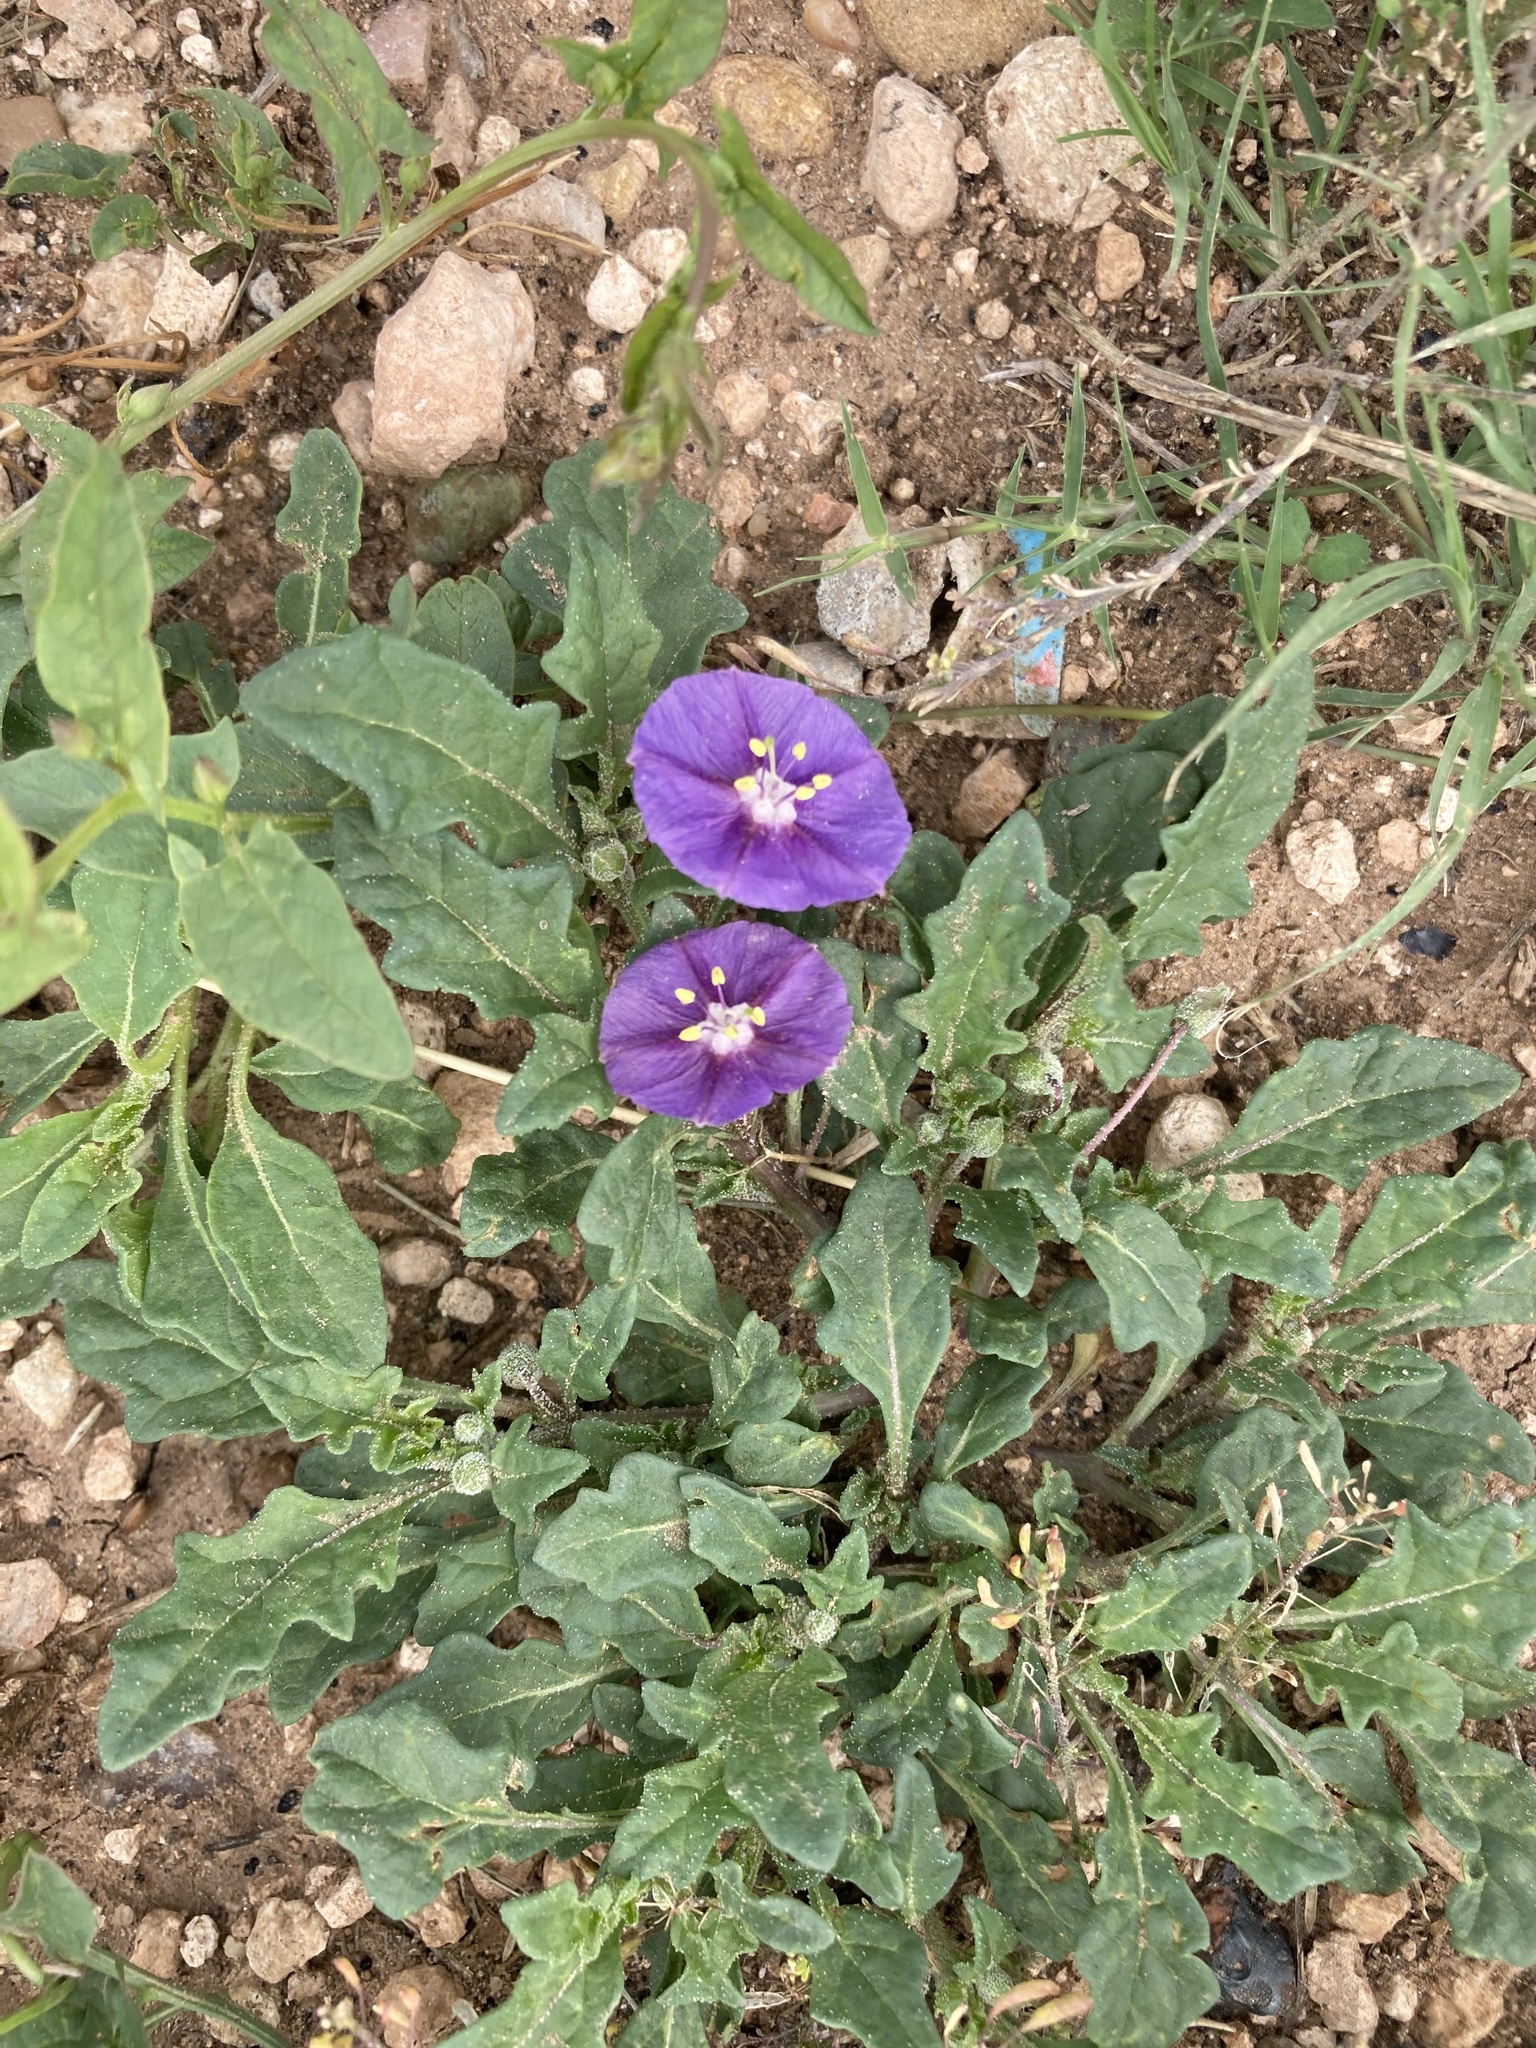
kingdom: Plantae
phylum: Tracheophyta
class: Magnoliopsida
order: Solanales
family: Solanaceae
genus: Quincula
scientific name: Quincula lobata
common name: Purple-ground-cherry
